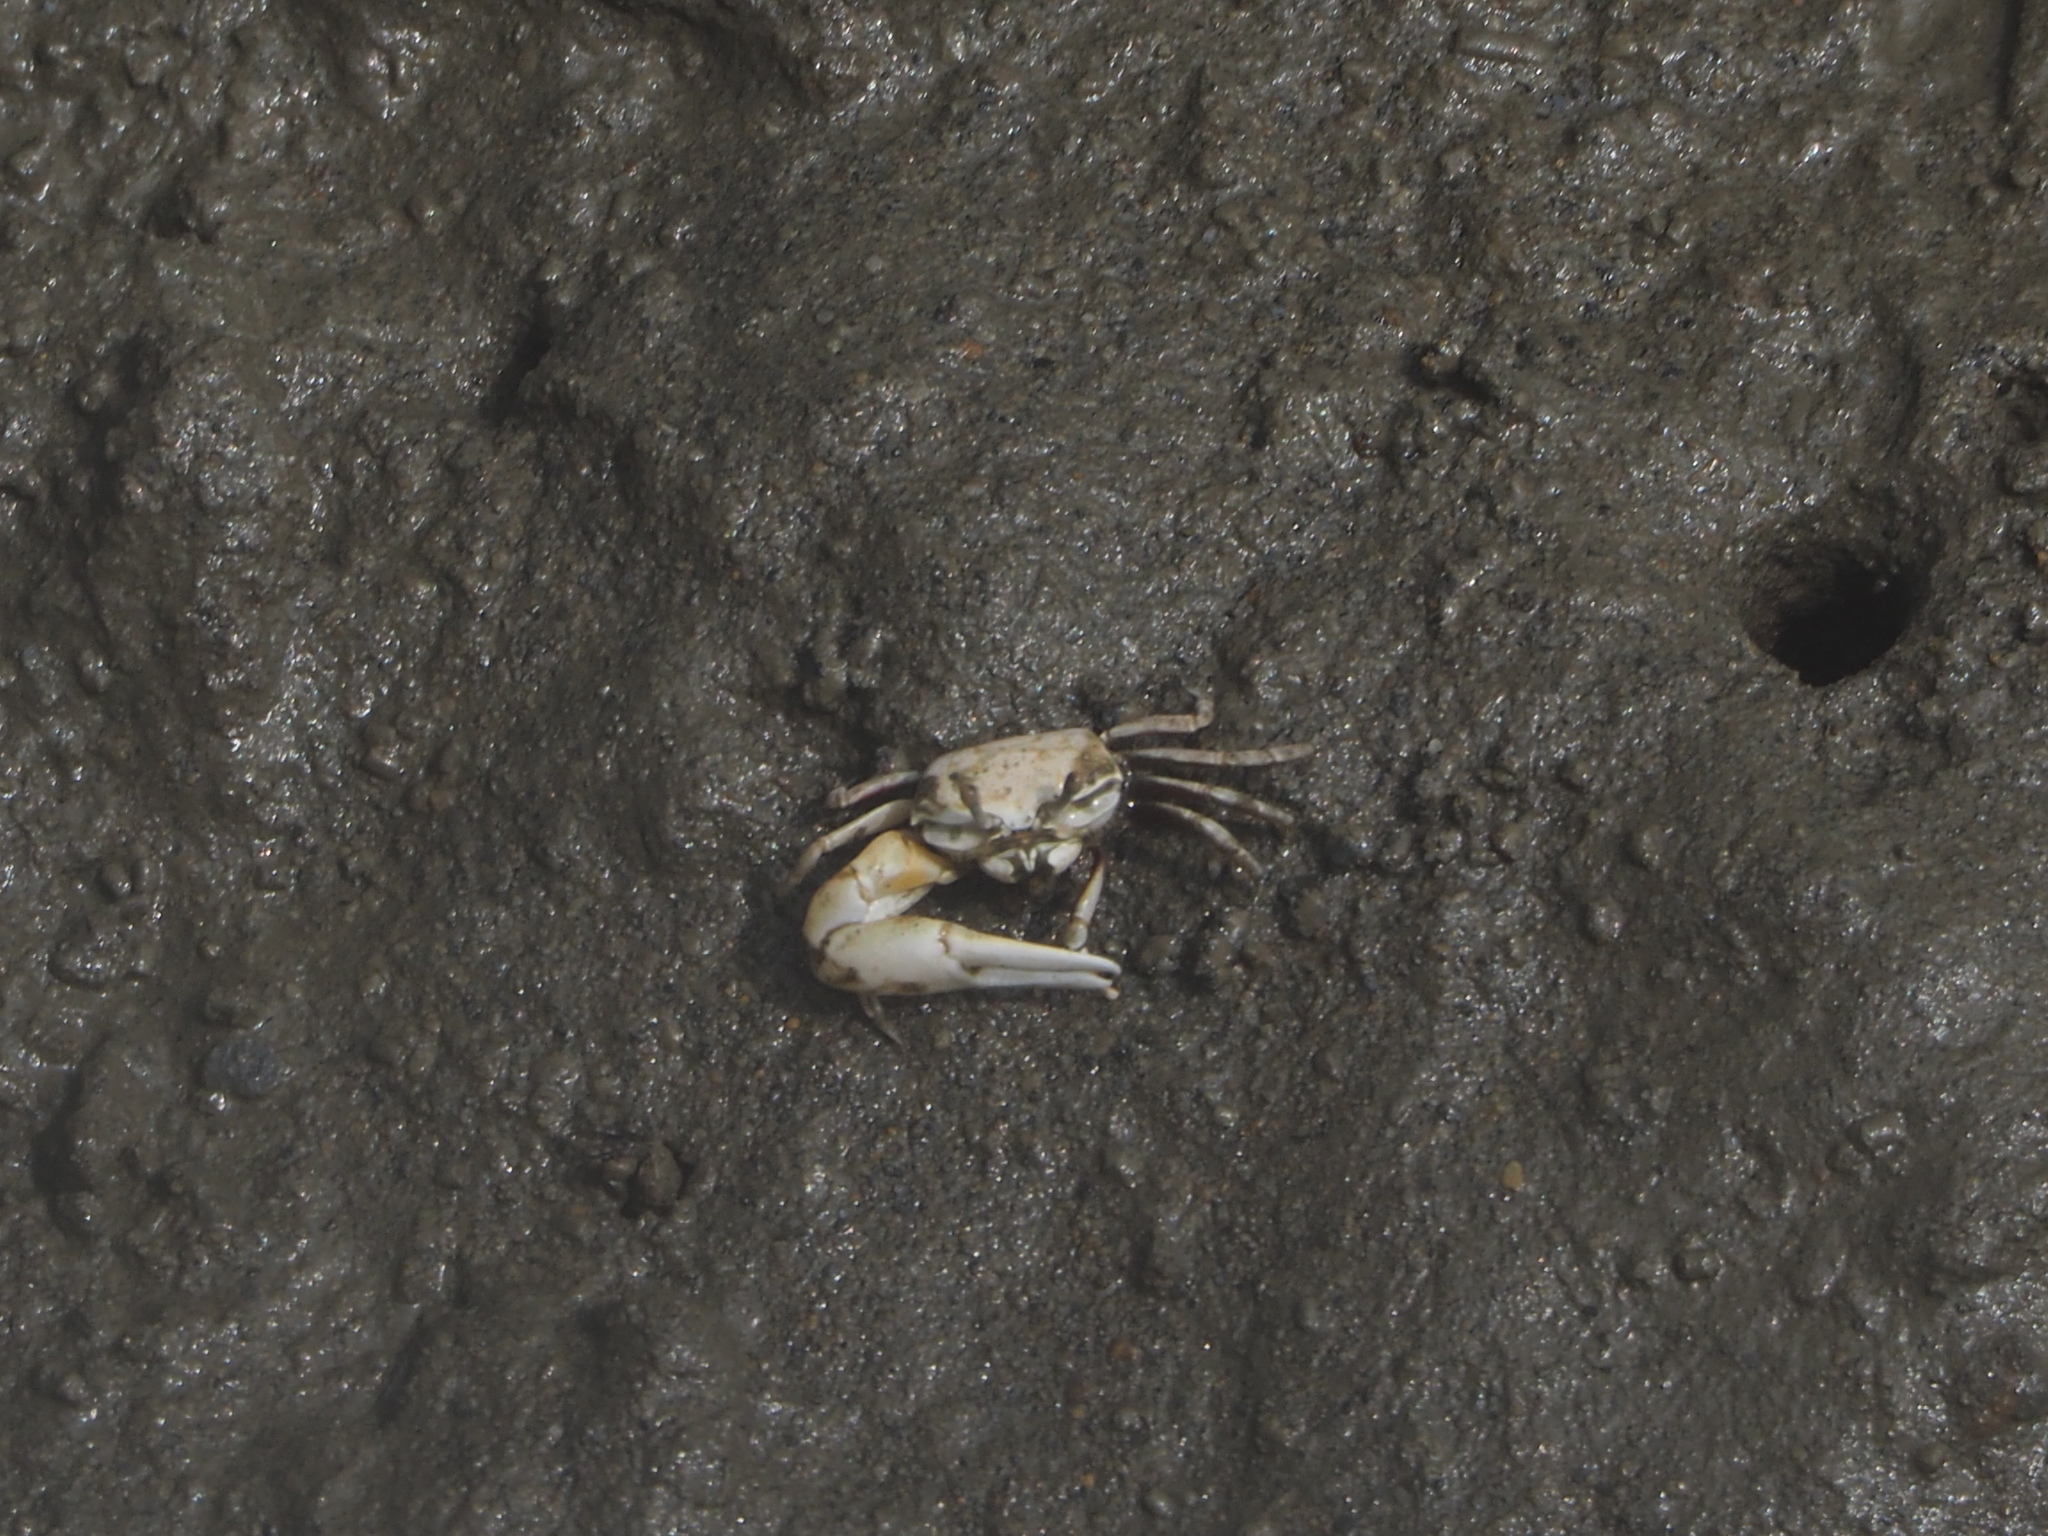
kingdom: Animalia
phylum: Arthropoda
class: Malacostraca
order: Decapoda
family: Ocypodidae
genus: Austruca
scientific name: Austruca lactea
